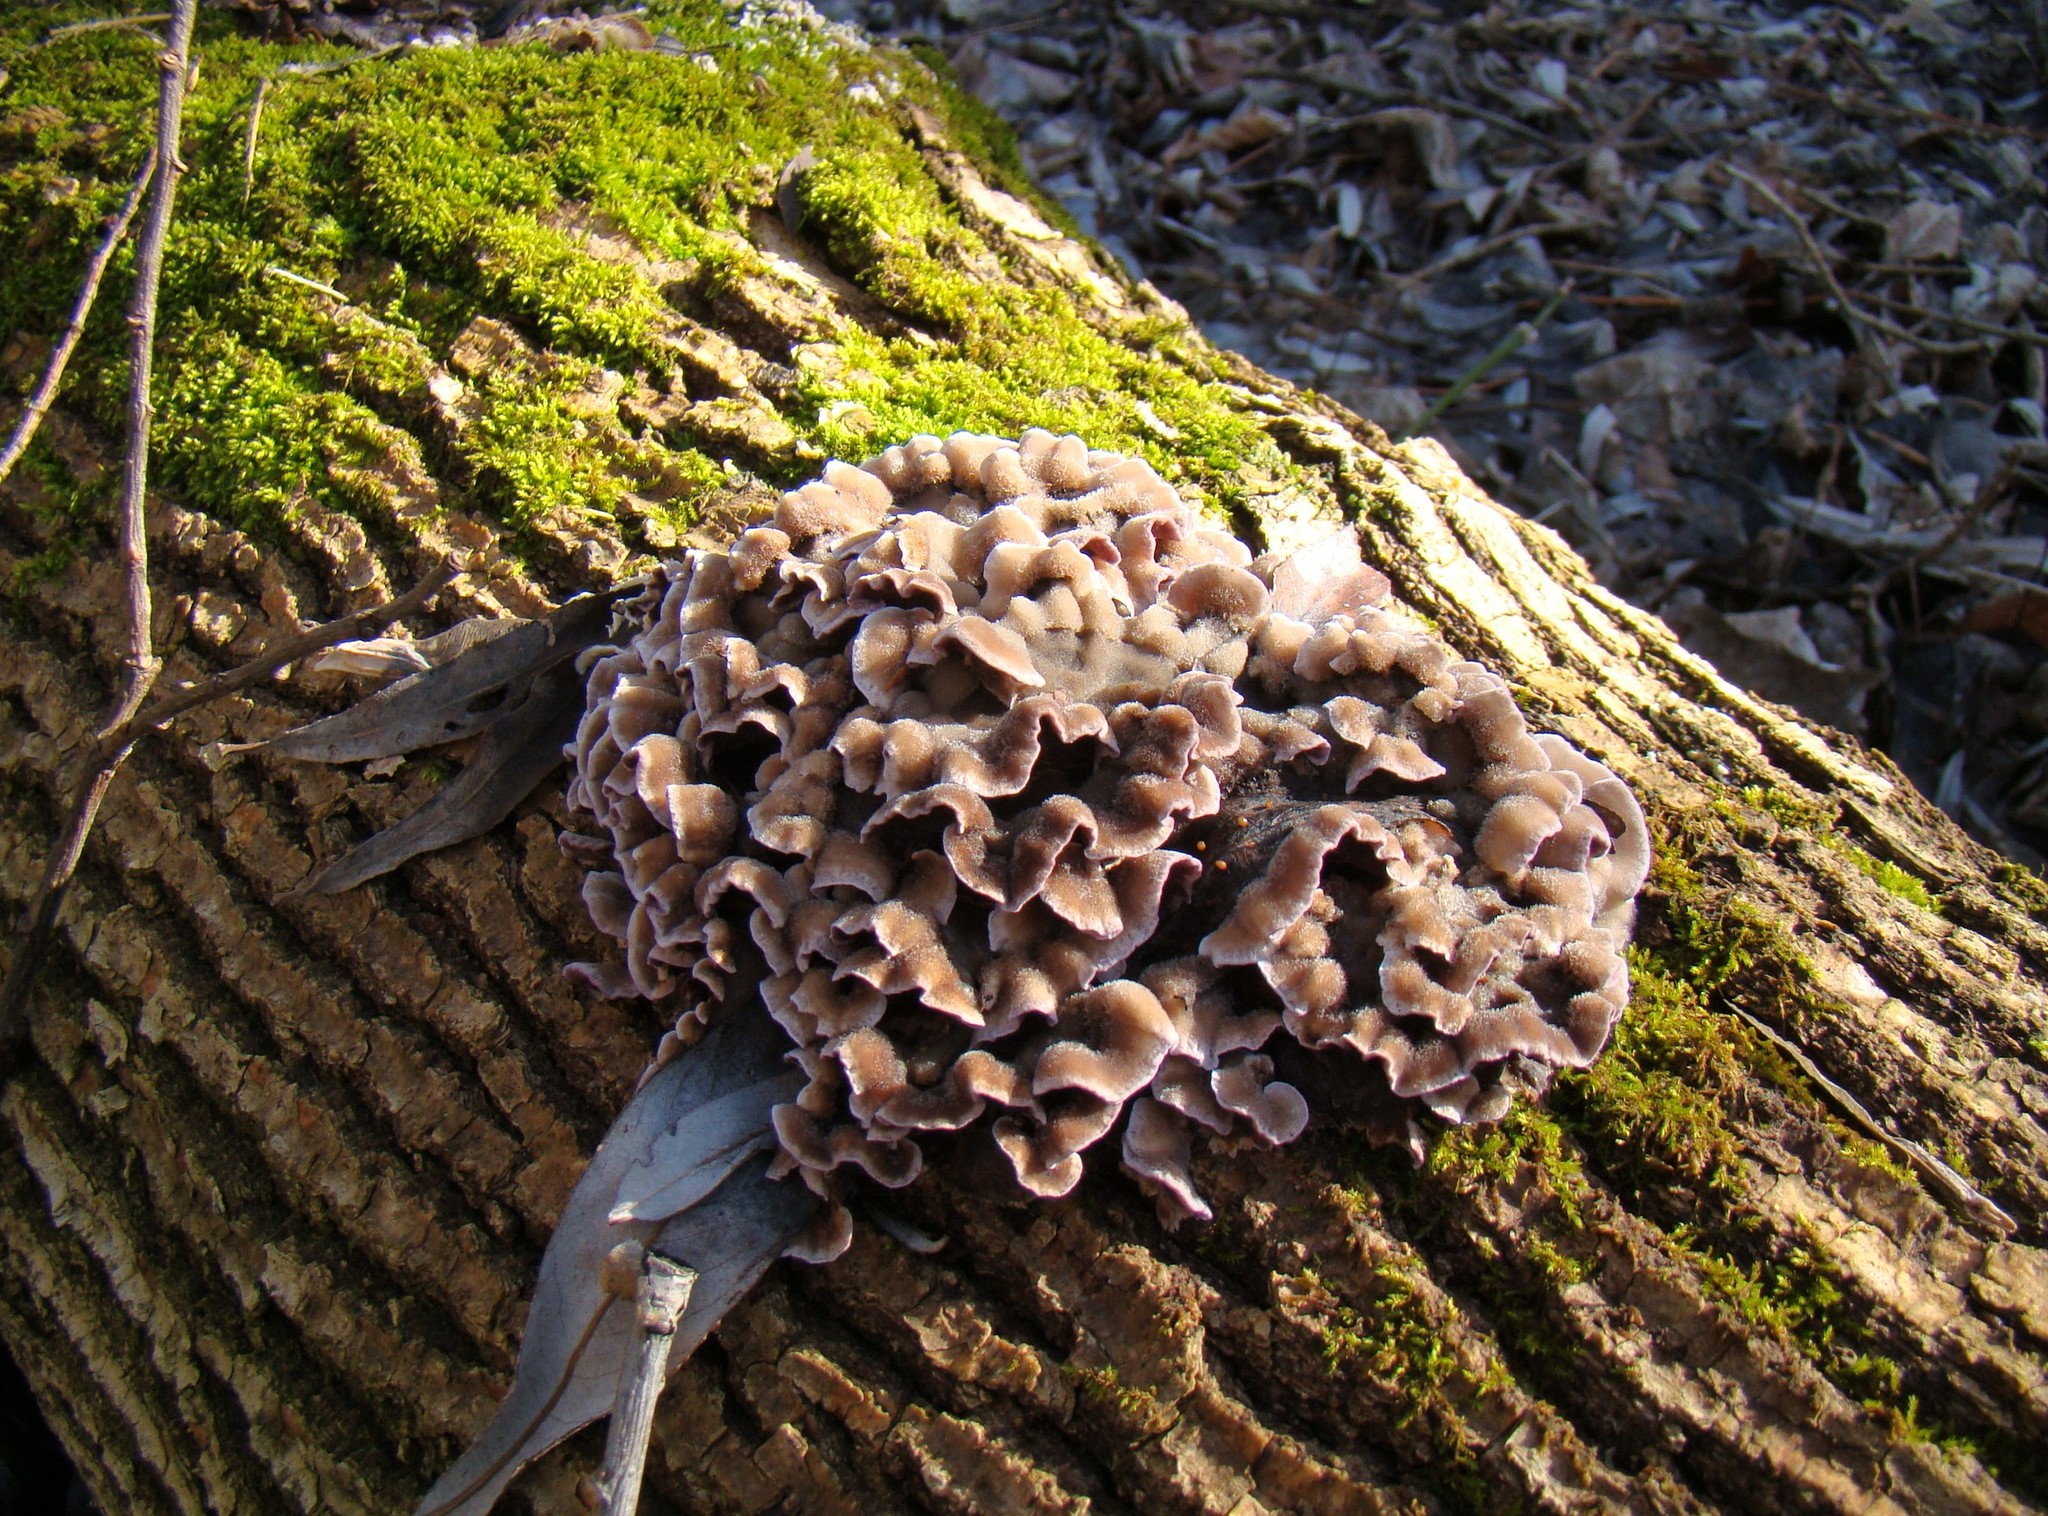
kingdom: Fungi
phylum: Basidiomycota
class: Agaricomycetes
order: Agaricales
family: Cyphellaceae
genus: Chondrostereum
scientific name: Chondrostereum purpureum
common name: Silver leaf disease
